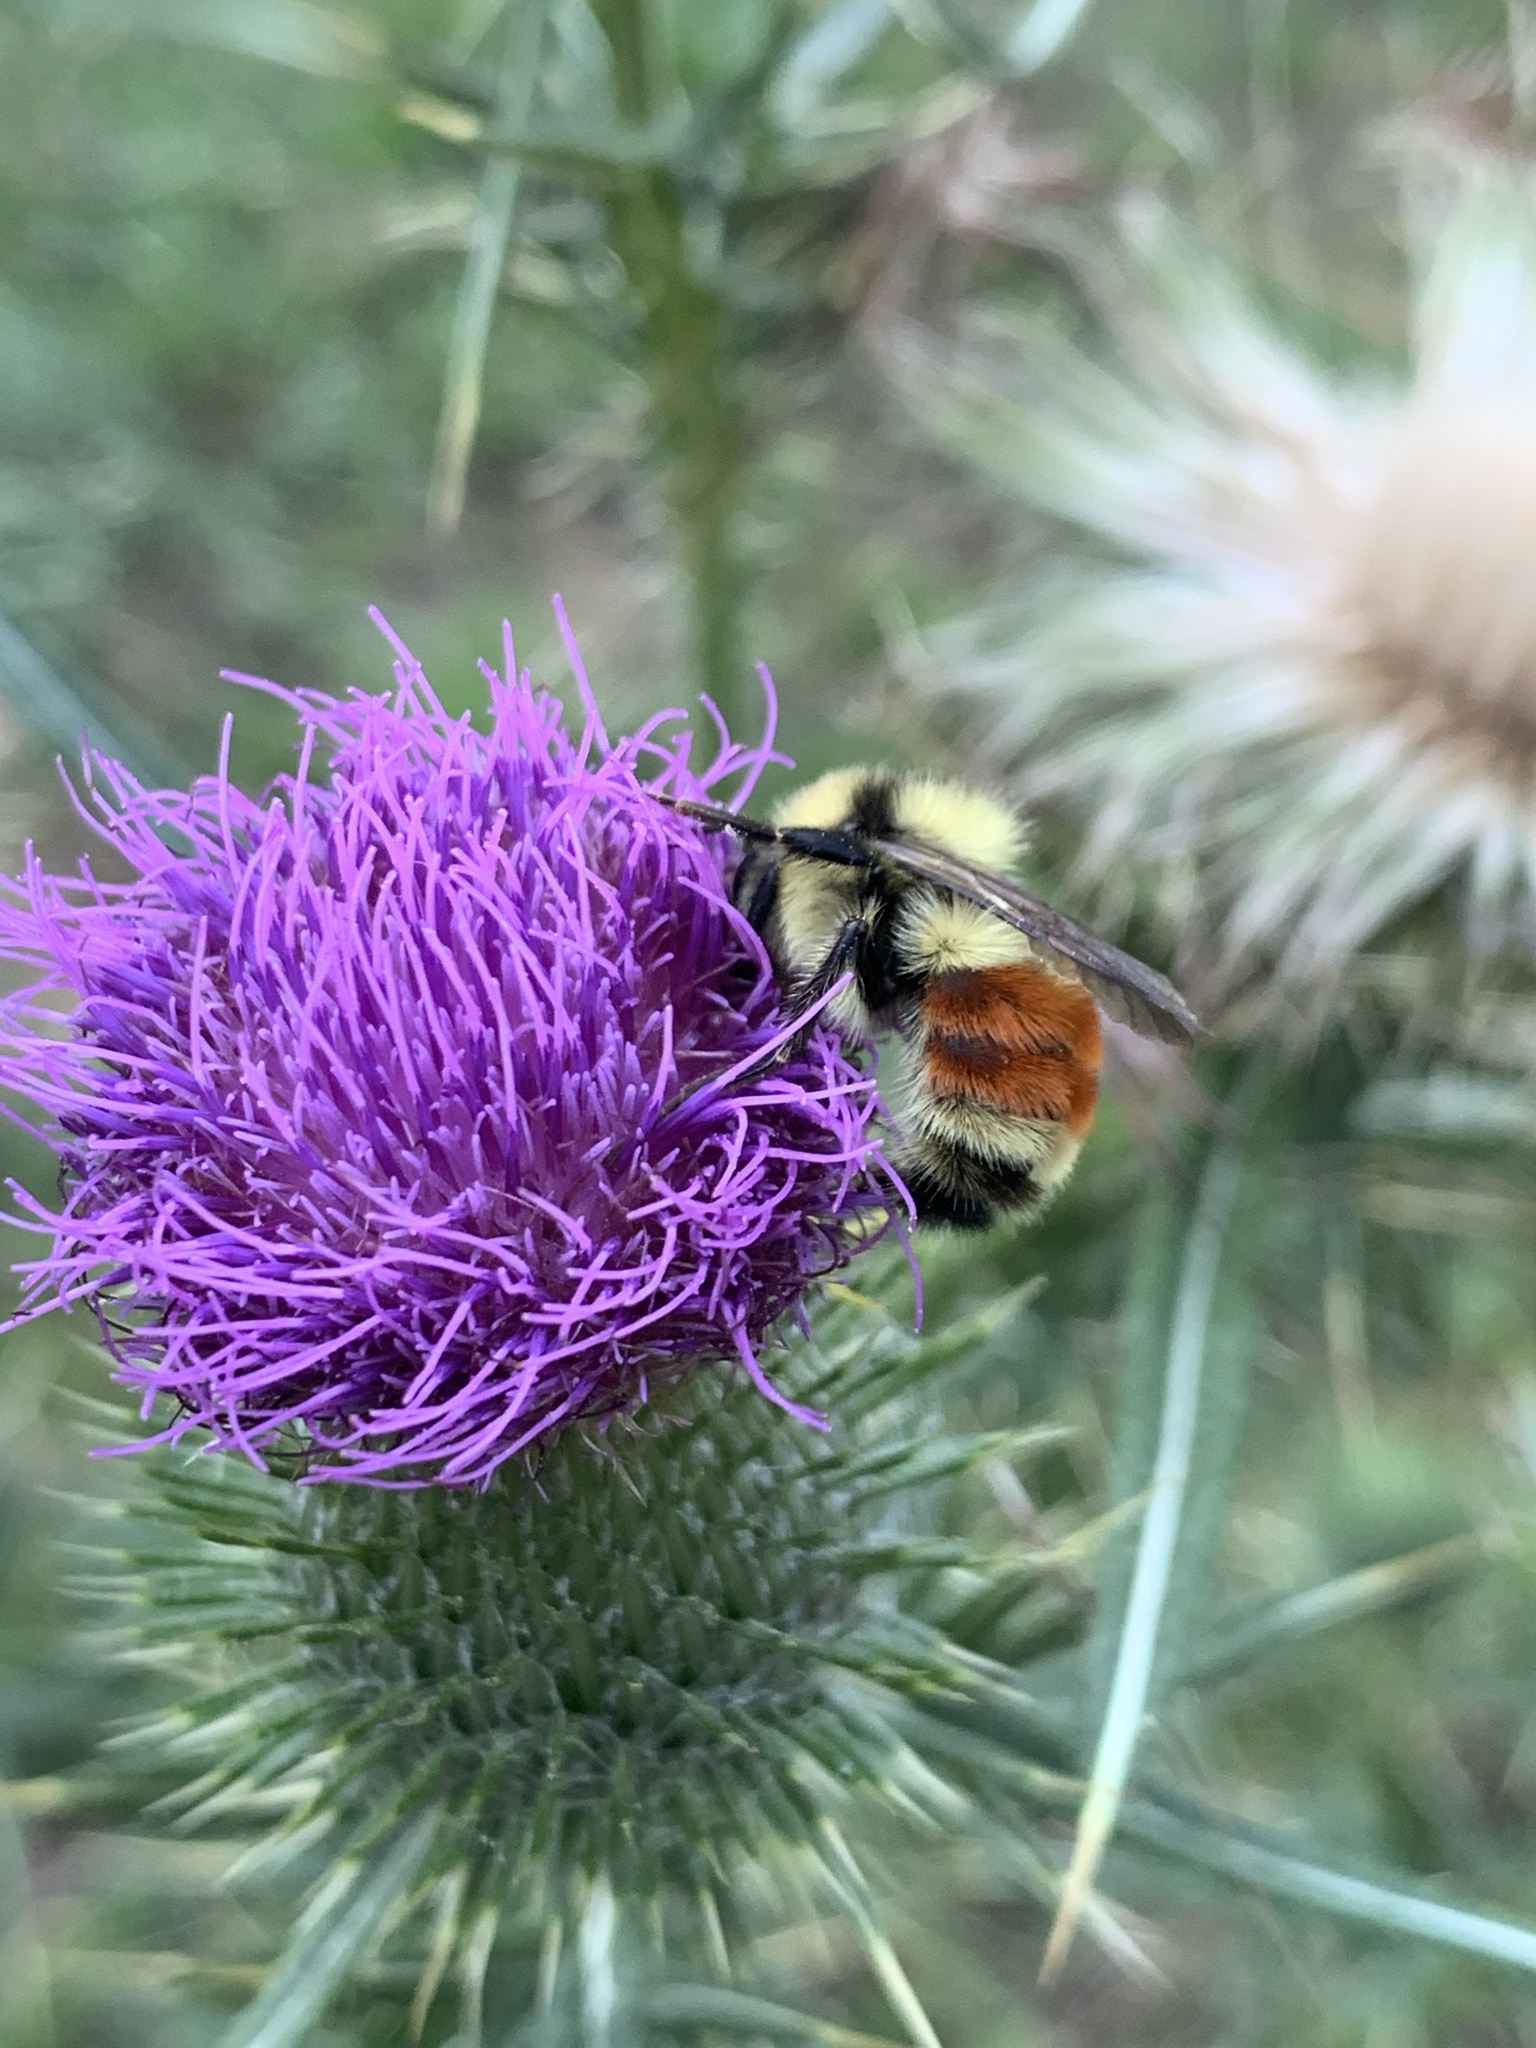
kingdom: Animalia
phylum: Arthropoda
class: Insecta
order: Hymenoptera
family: Apidae
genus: Bombus
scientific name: Bombus huntii
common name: Hunt bumble bee
